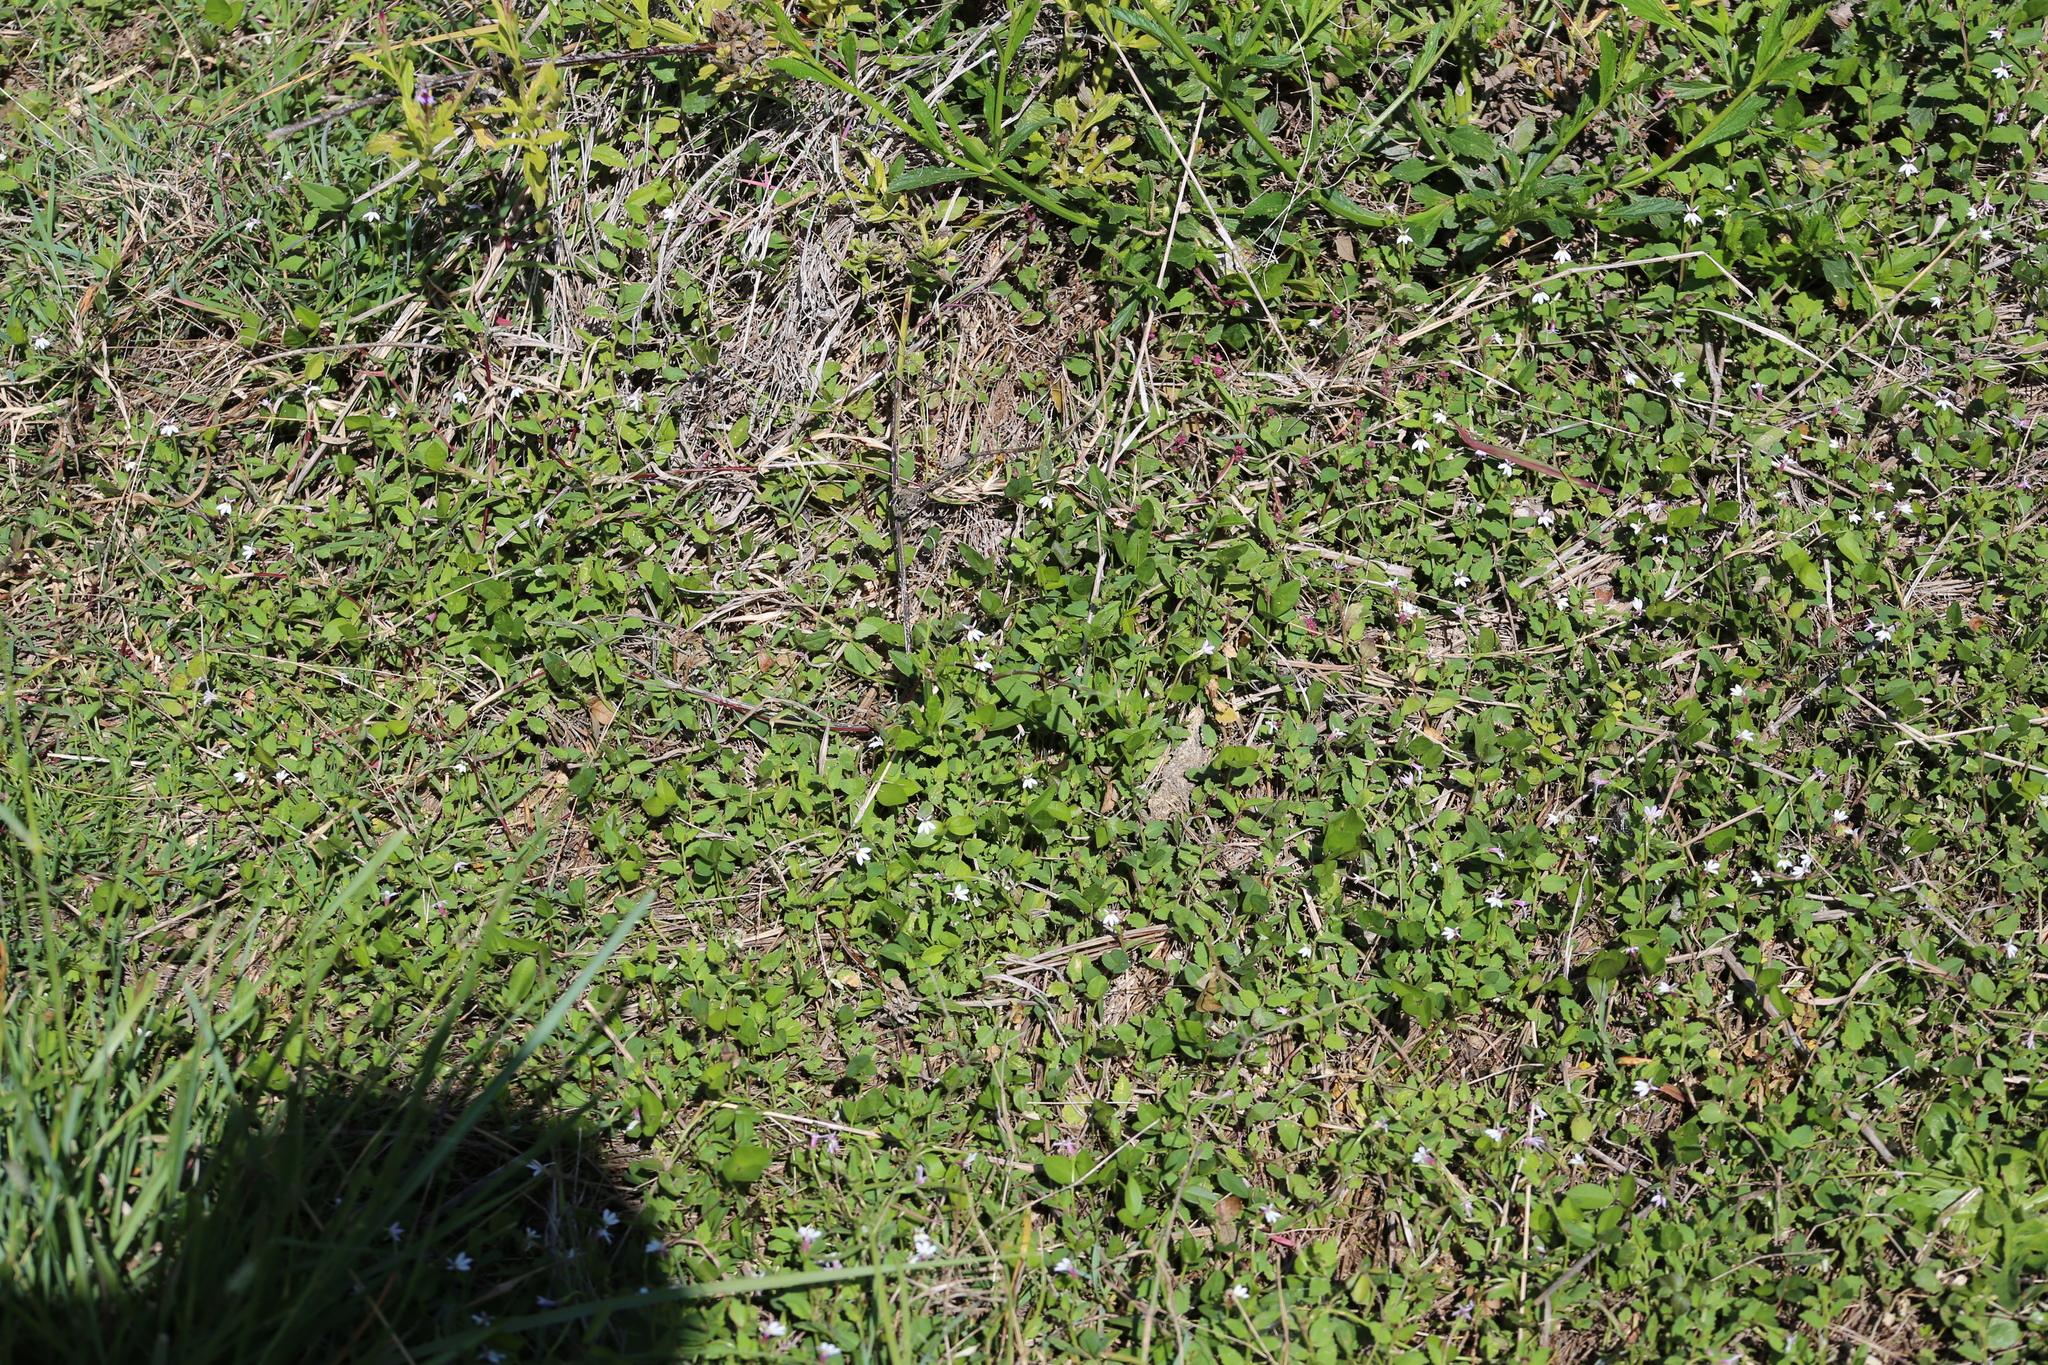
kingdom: Plantae
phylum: Tracheophyta
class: Magnoliopsida
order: Asterales
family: Campanulaceae
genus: Lobelia
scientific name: Lobelia purpurascens
